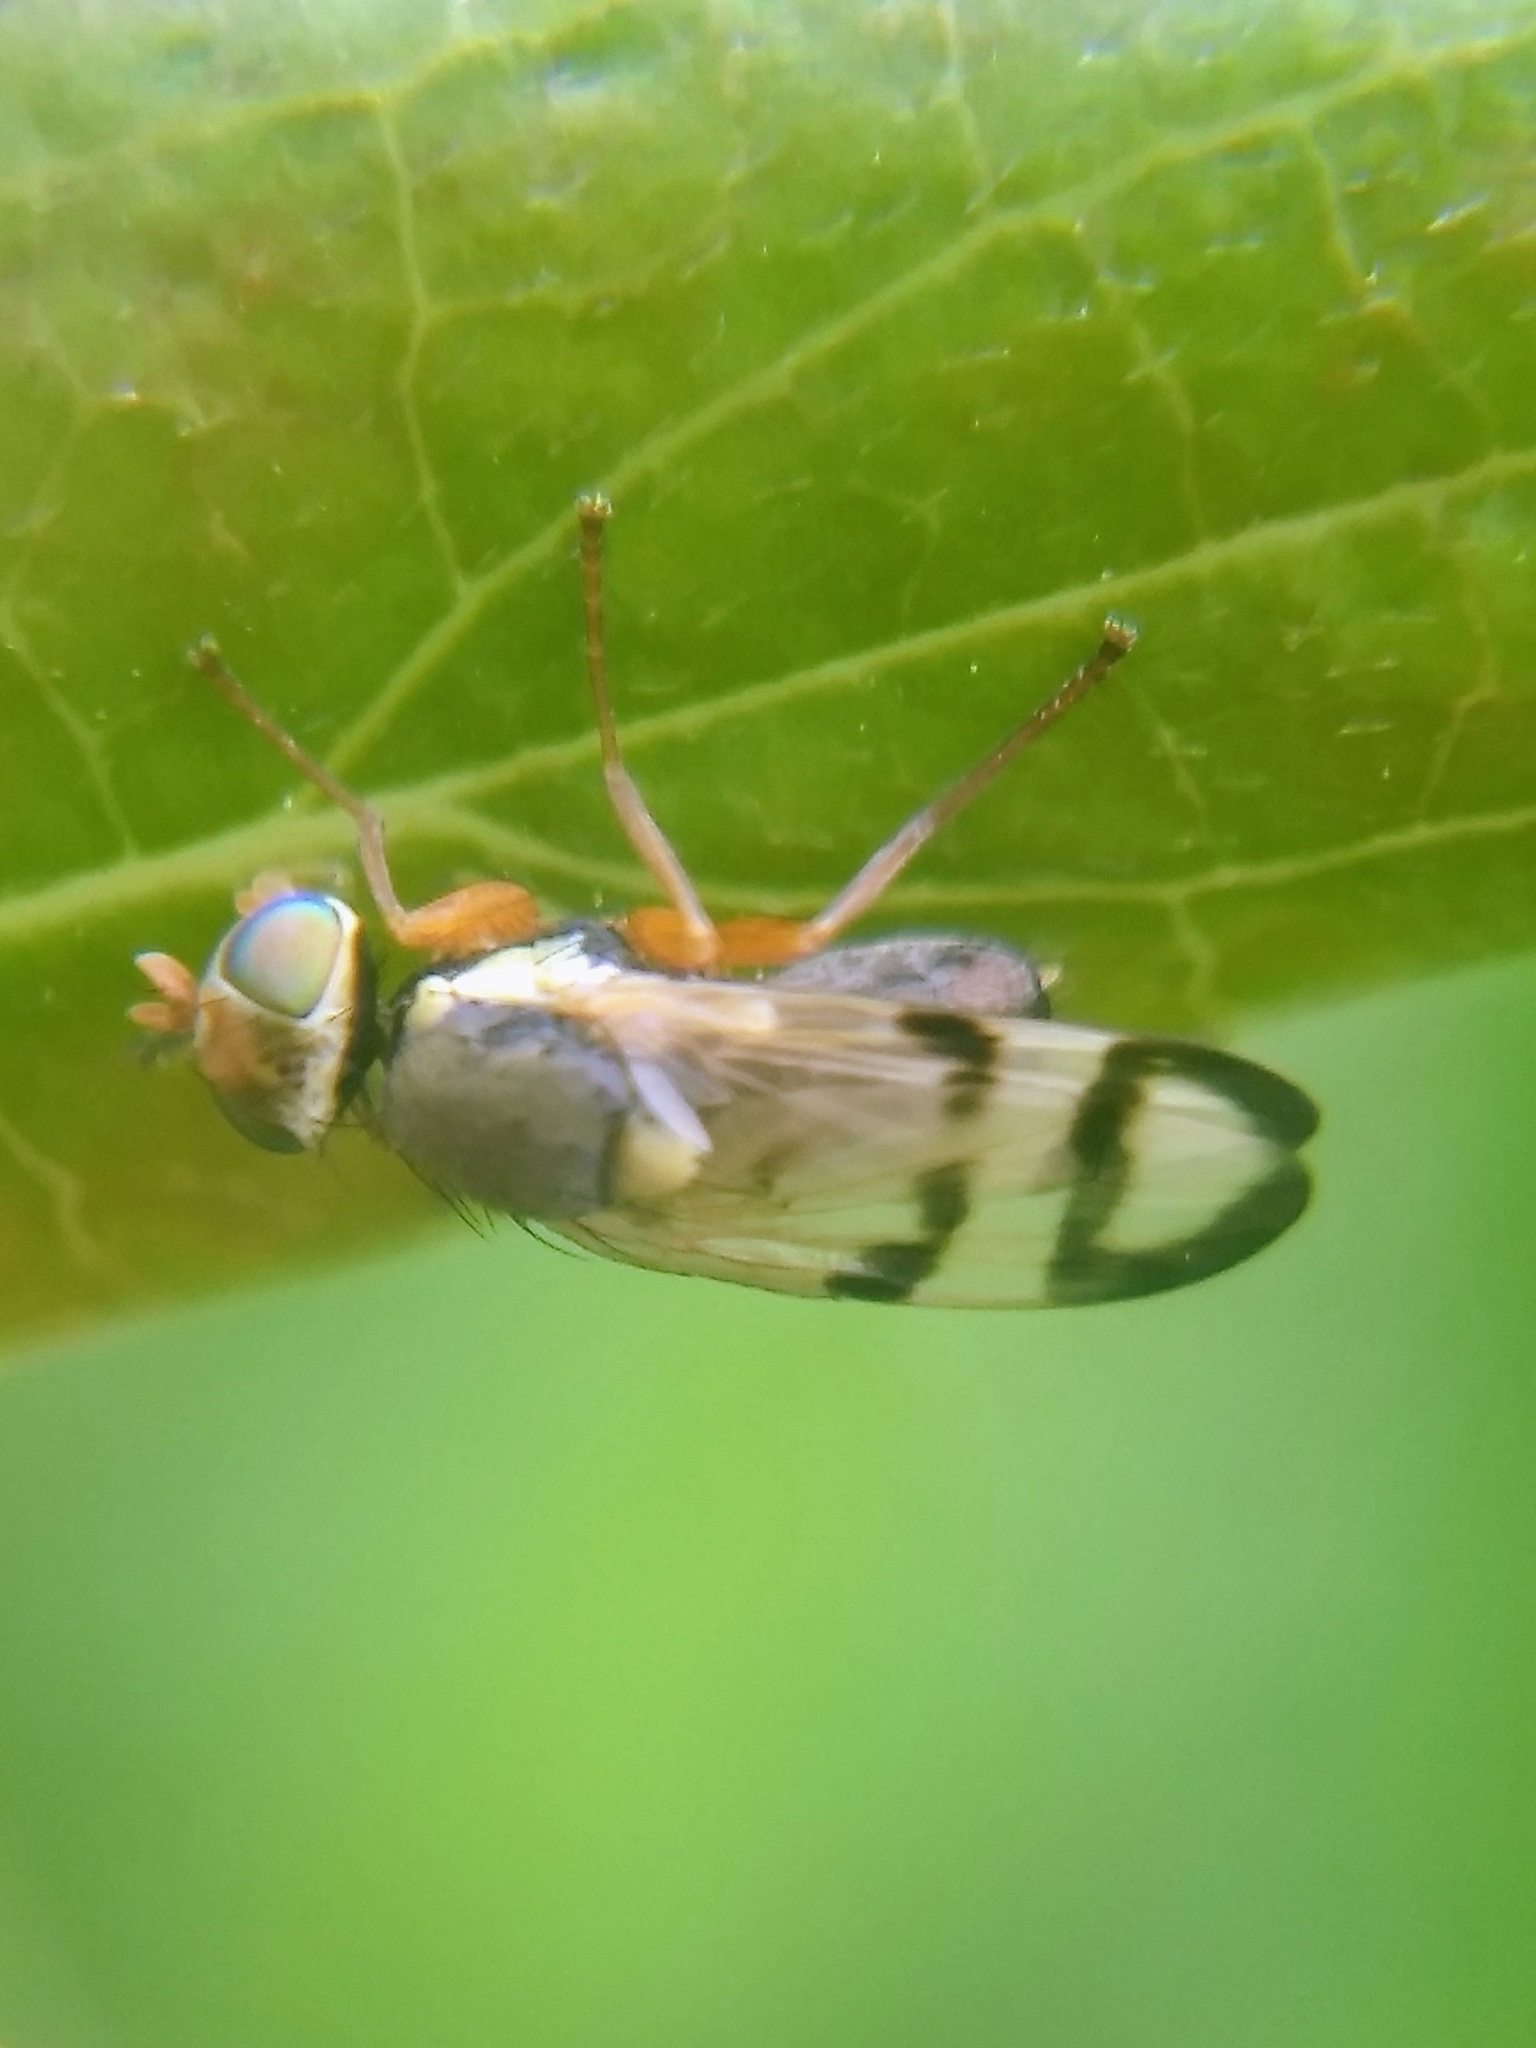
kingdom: Animalia
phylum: Arthropoda
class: Insecta
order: Diptera
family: Tephritidae
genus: Urophora
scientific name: Urophora stylata
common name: Fruit fly
